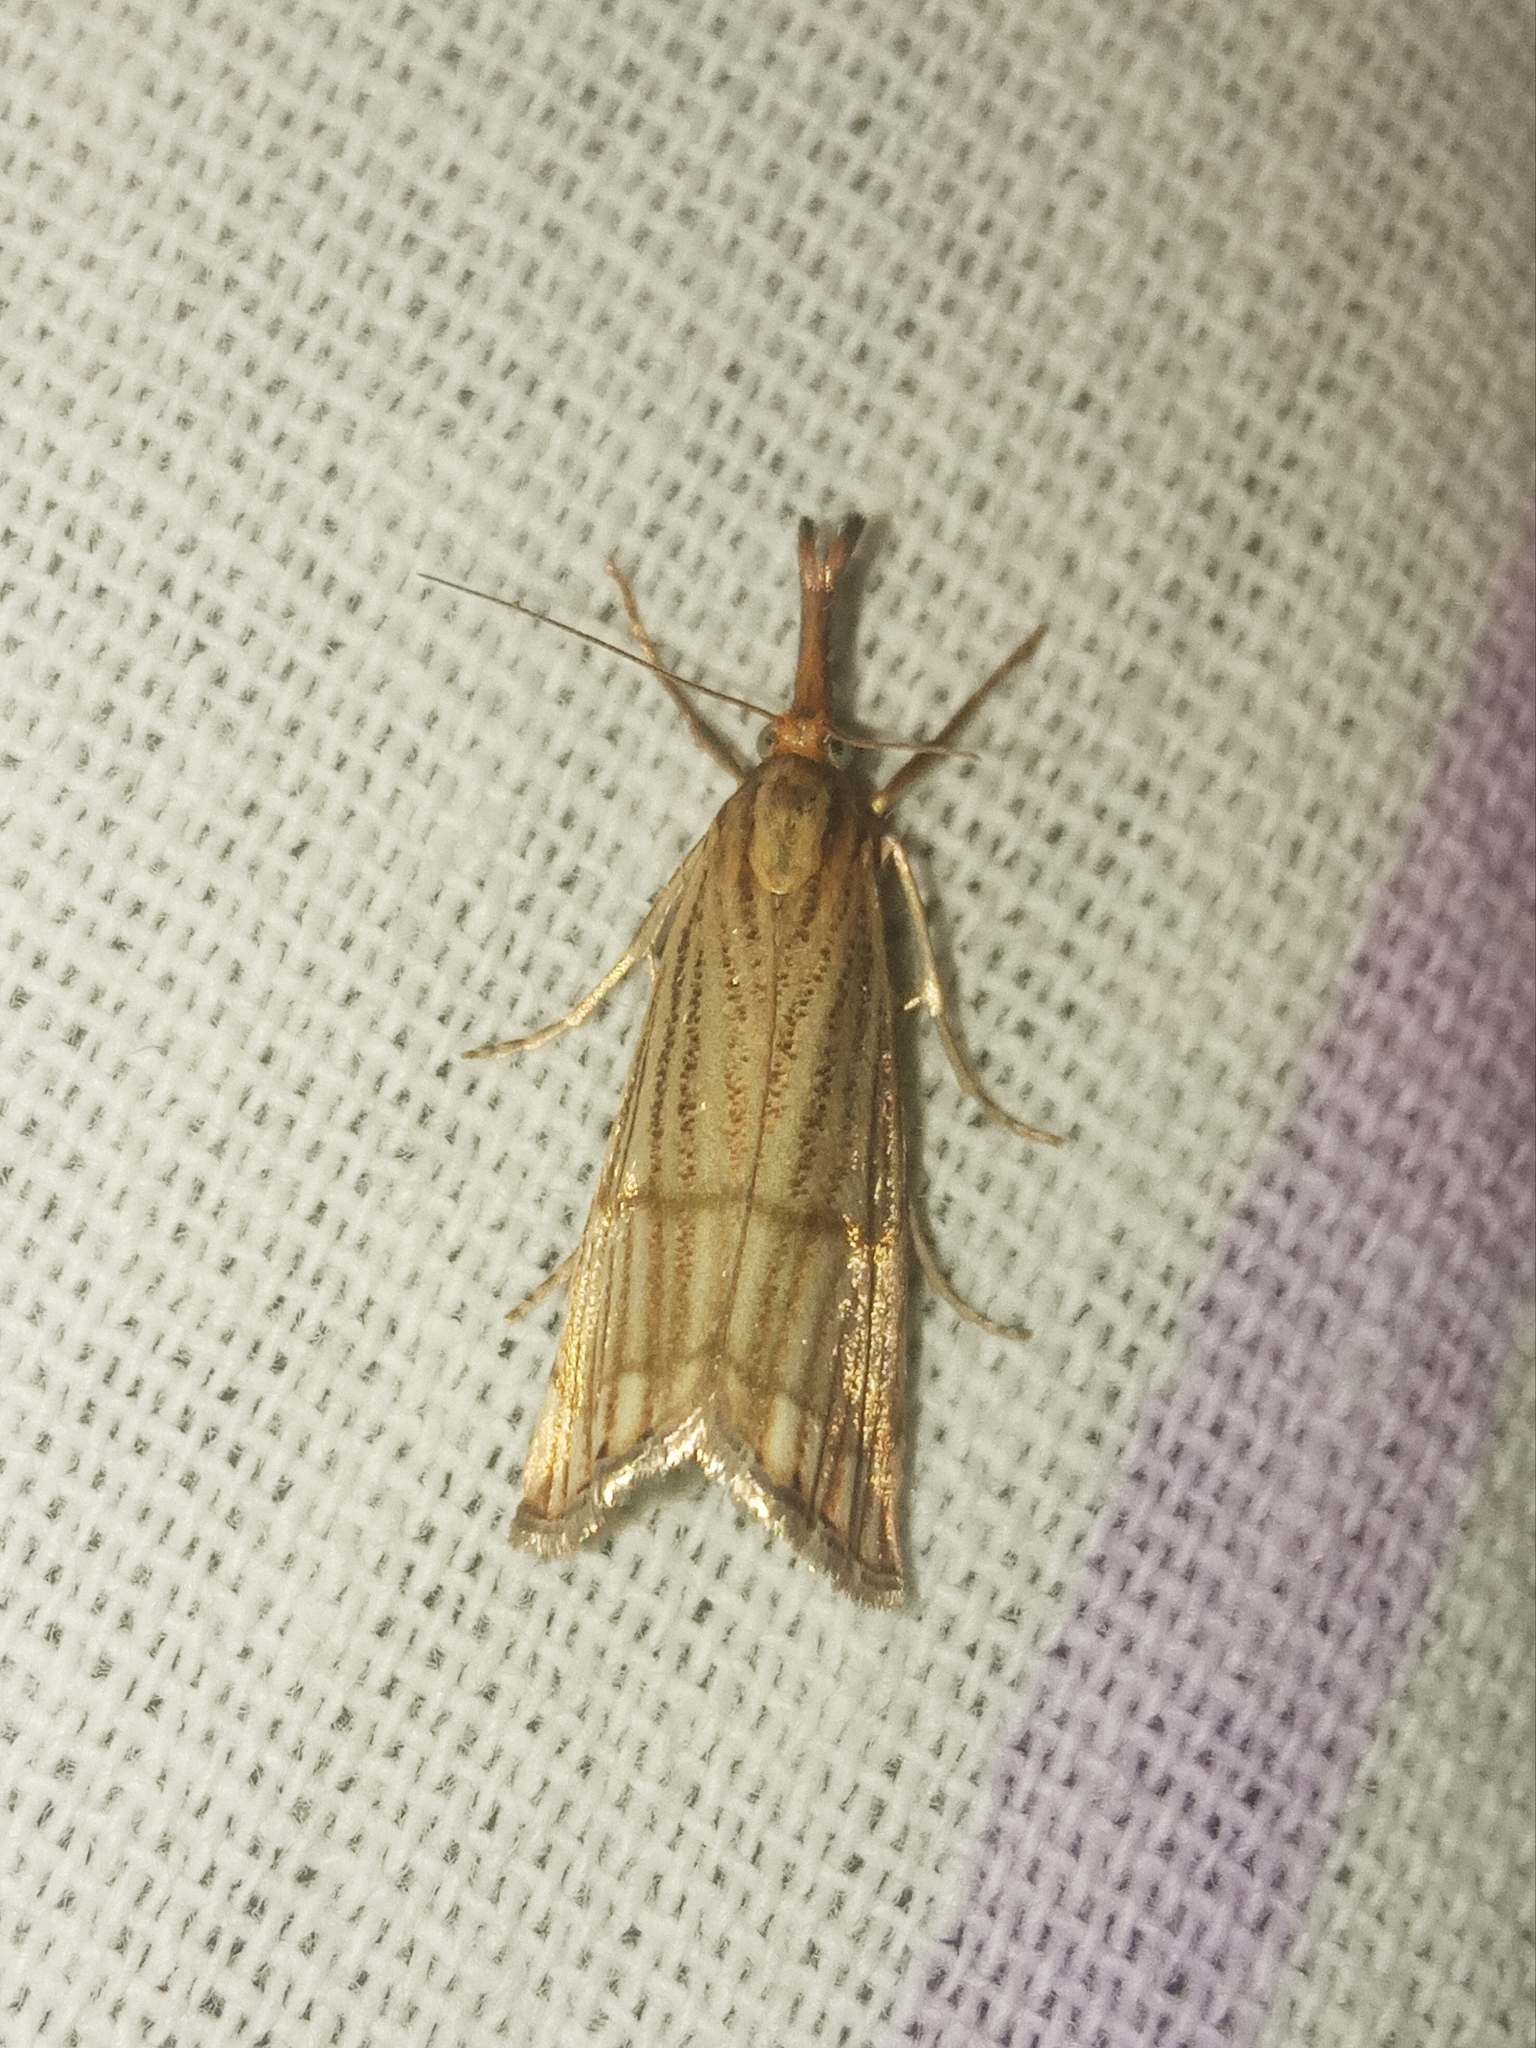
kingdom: Animalia
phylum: Arthropoda
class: Insecta
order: Lepidoptera
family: Crambidae
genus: Chrysocrambus
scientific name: Chrysocrambus linetella
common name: Orange-bar grass-veneer
